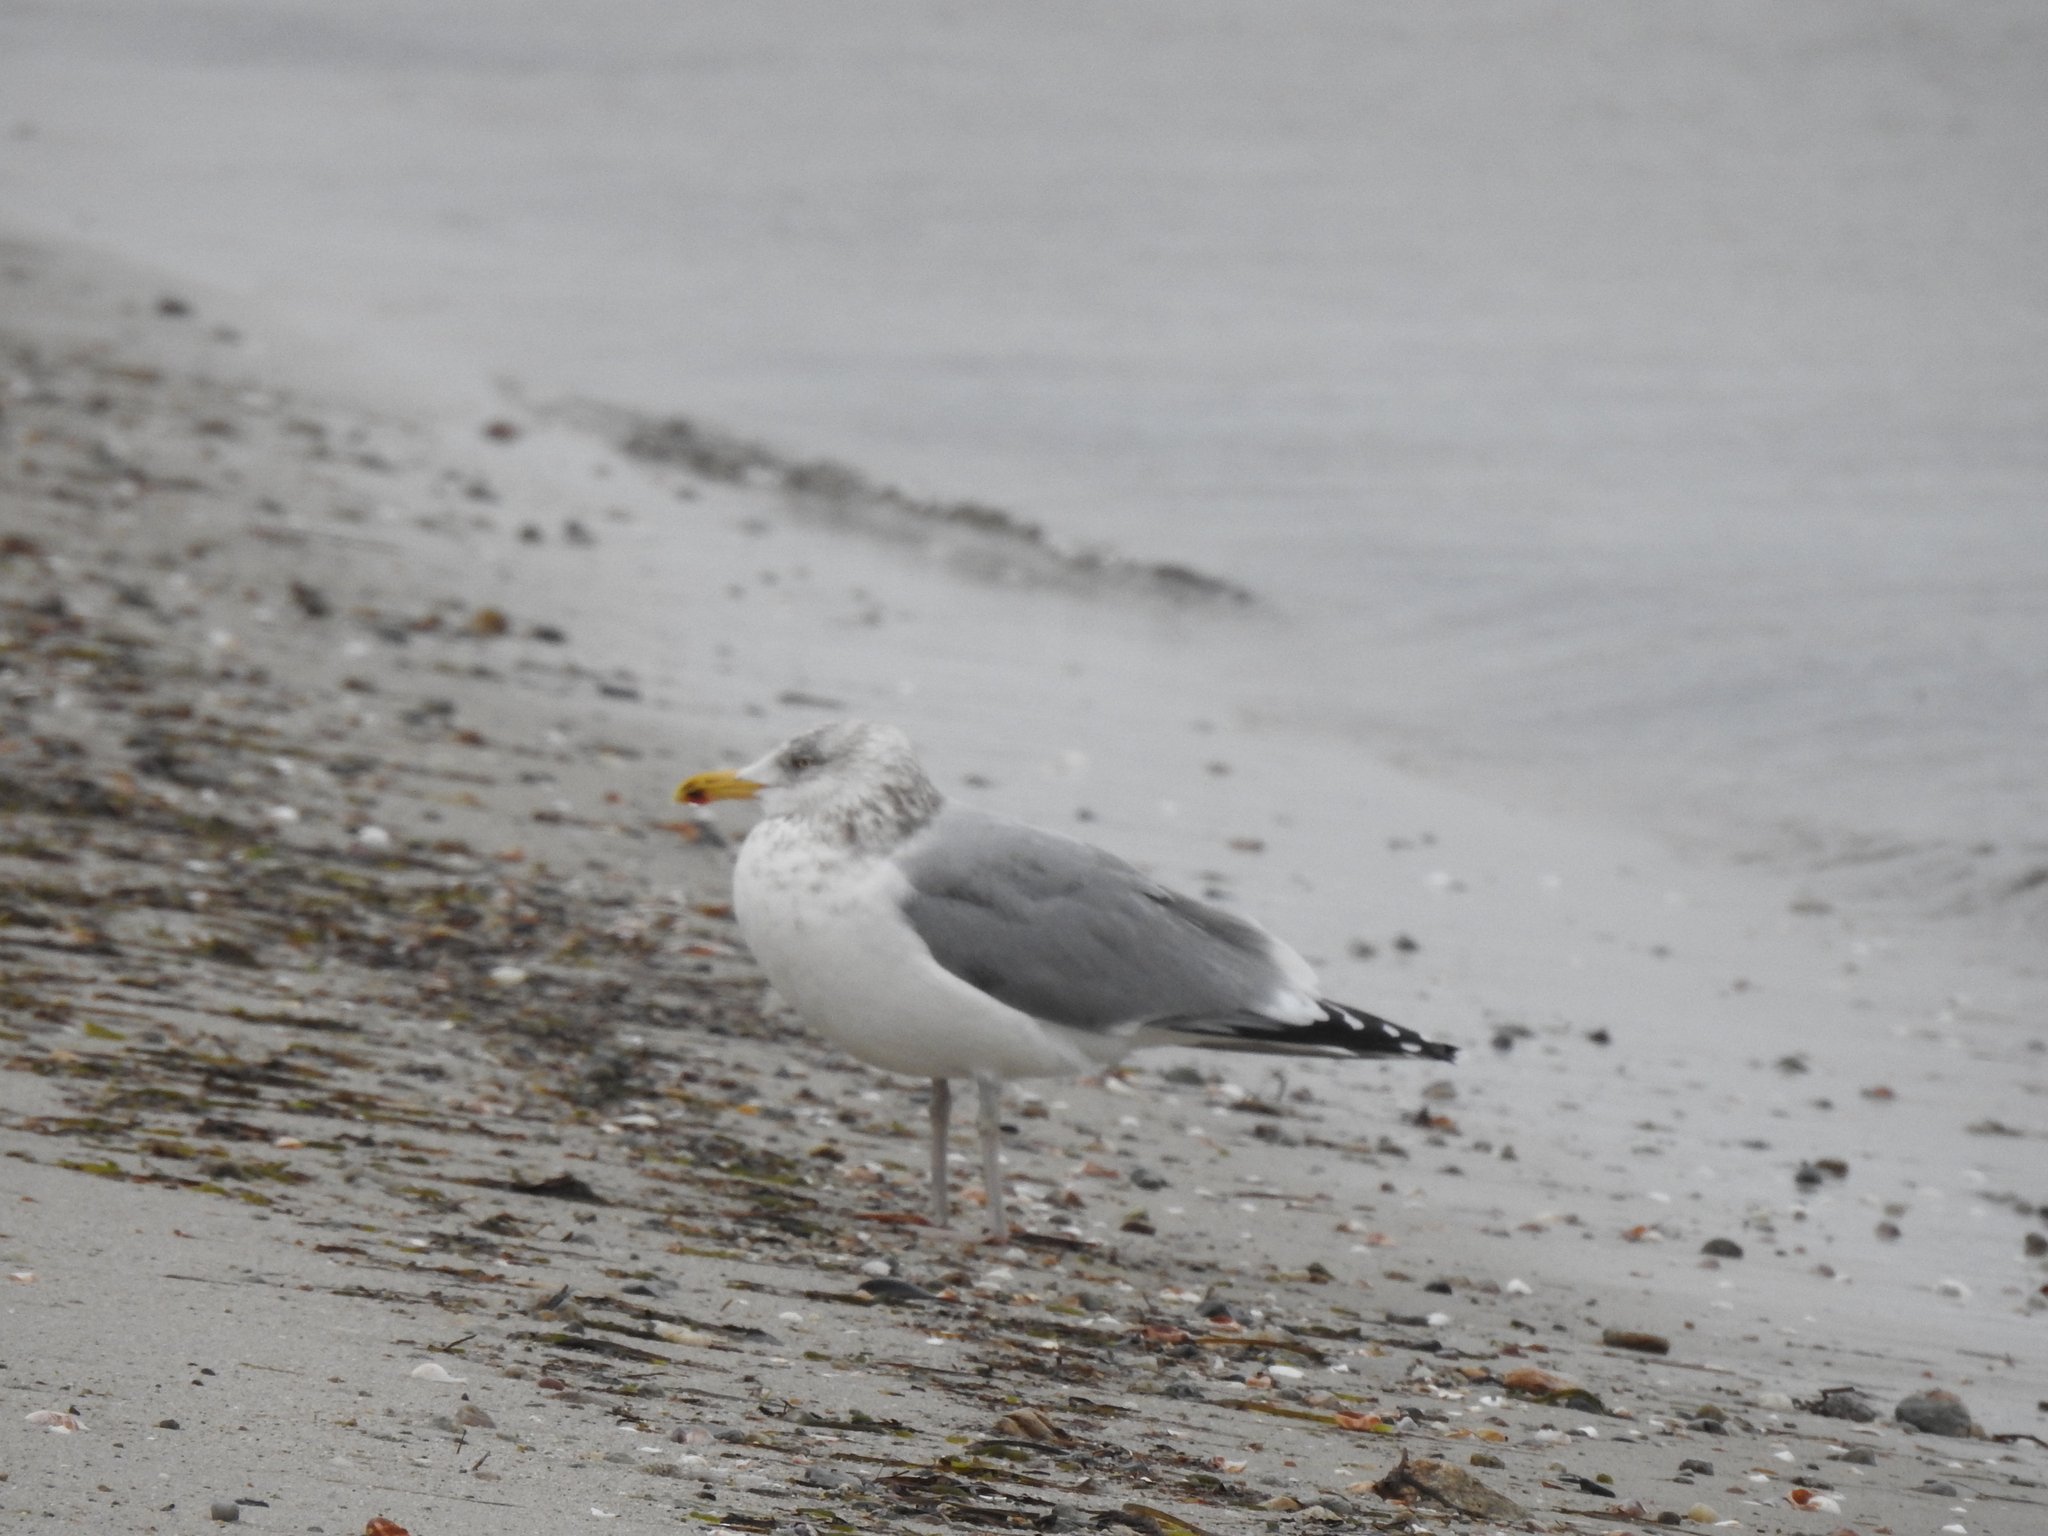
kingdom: Animalia
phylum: Chordata
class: Aves
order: Charadriiformes
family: Laridae
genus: Larus
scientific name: Larus argentatus
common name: Herring gull
